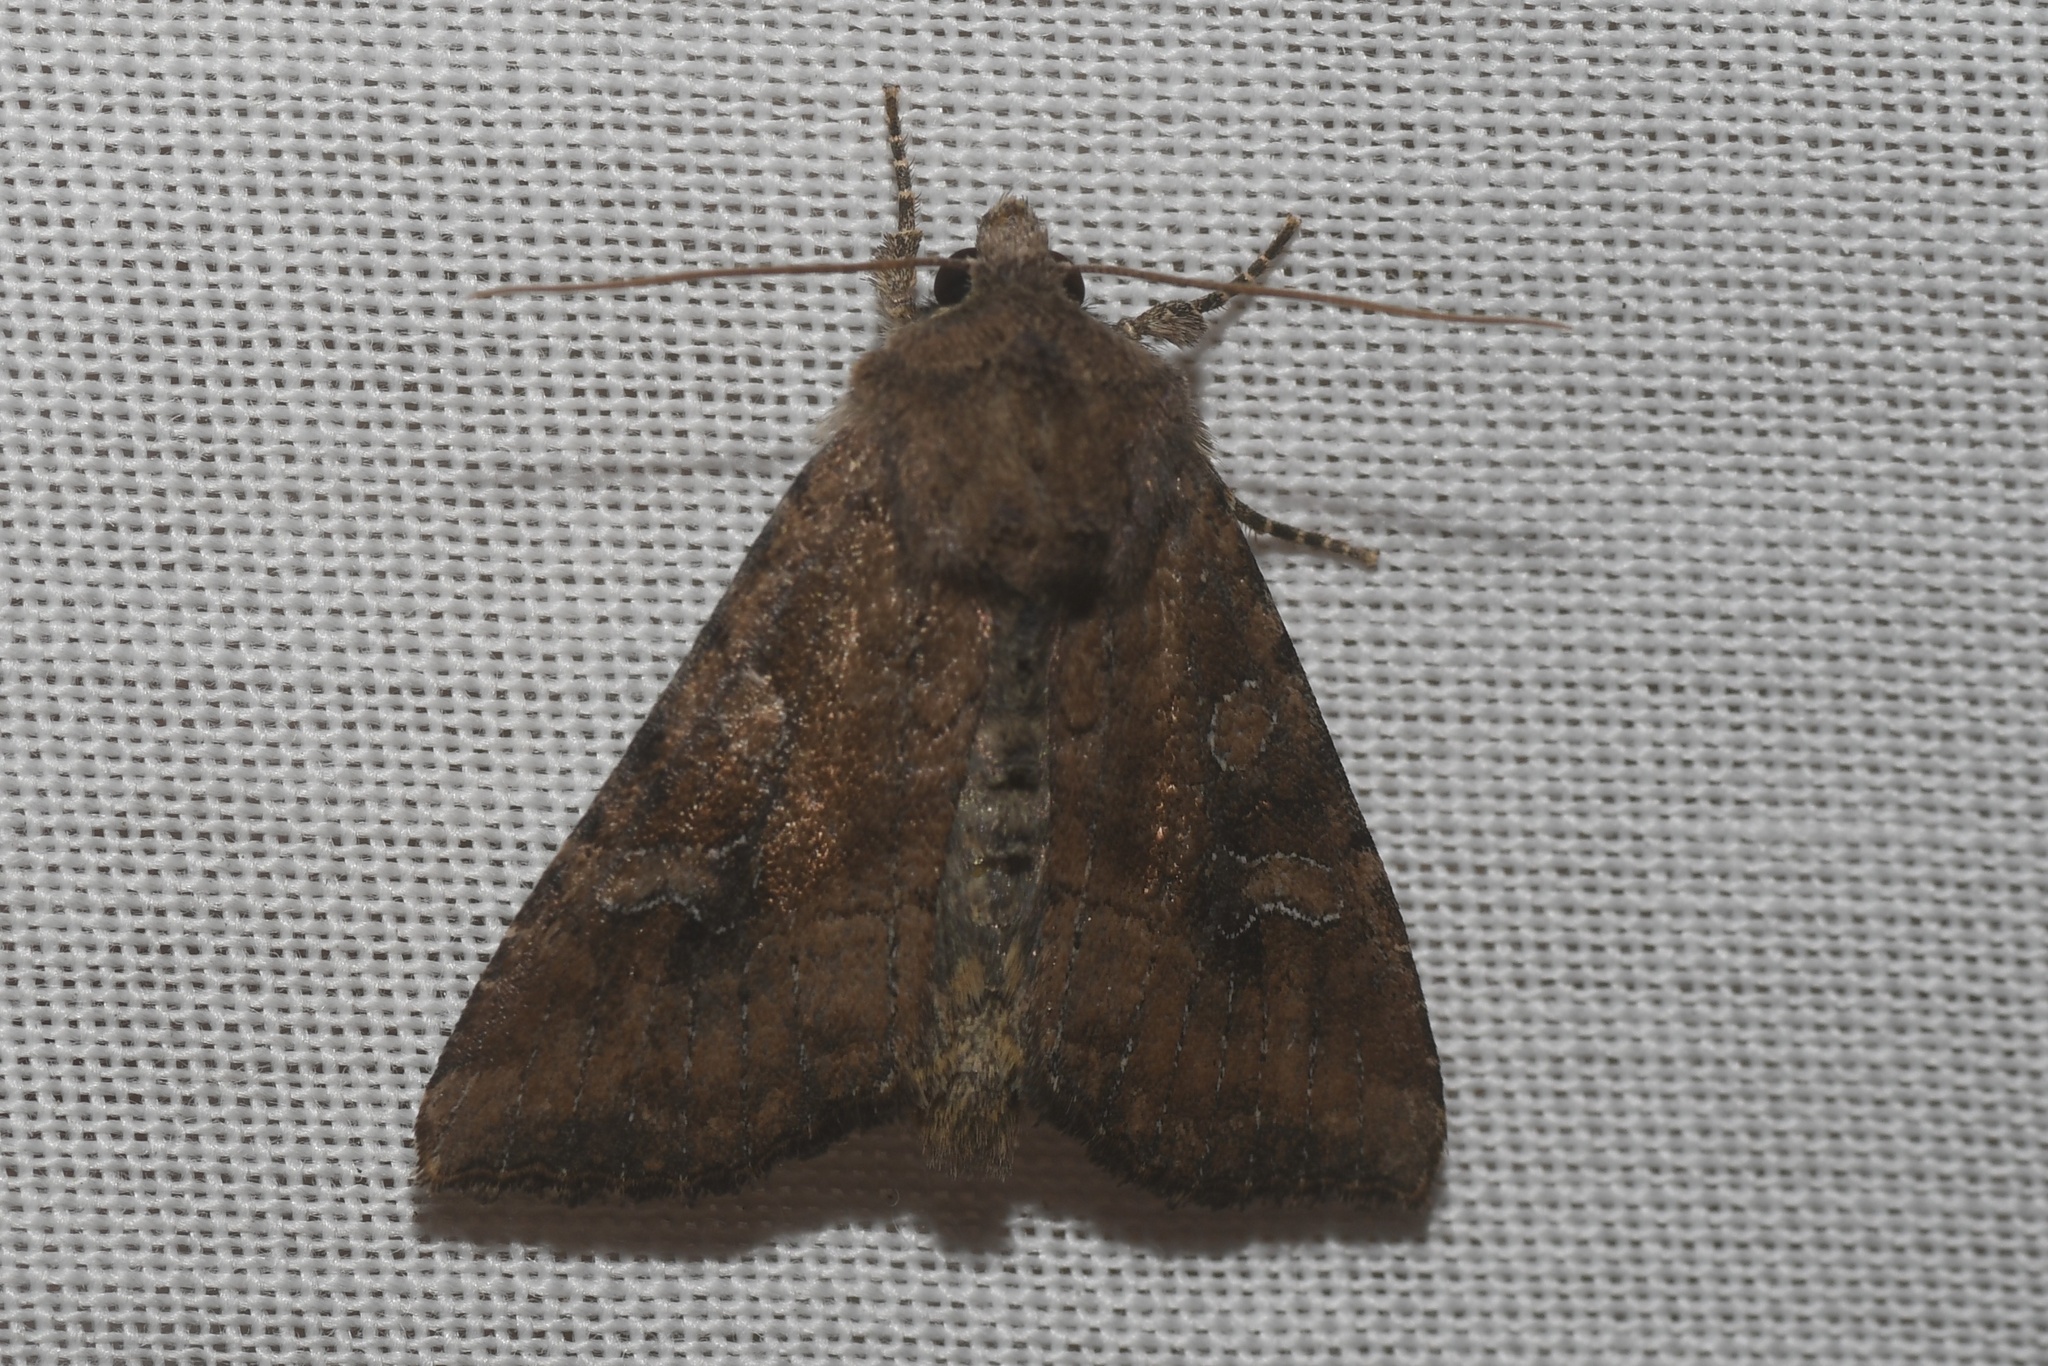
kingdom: Animalia
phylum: Arthropoda
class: Insecta
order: Lepidoptera
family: Noctuidae
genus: Loscopia
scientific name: Loscopia velata
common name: Veiled ear moth
